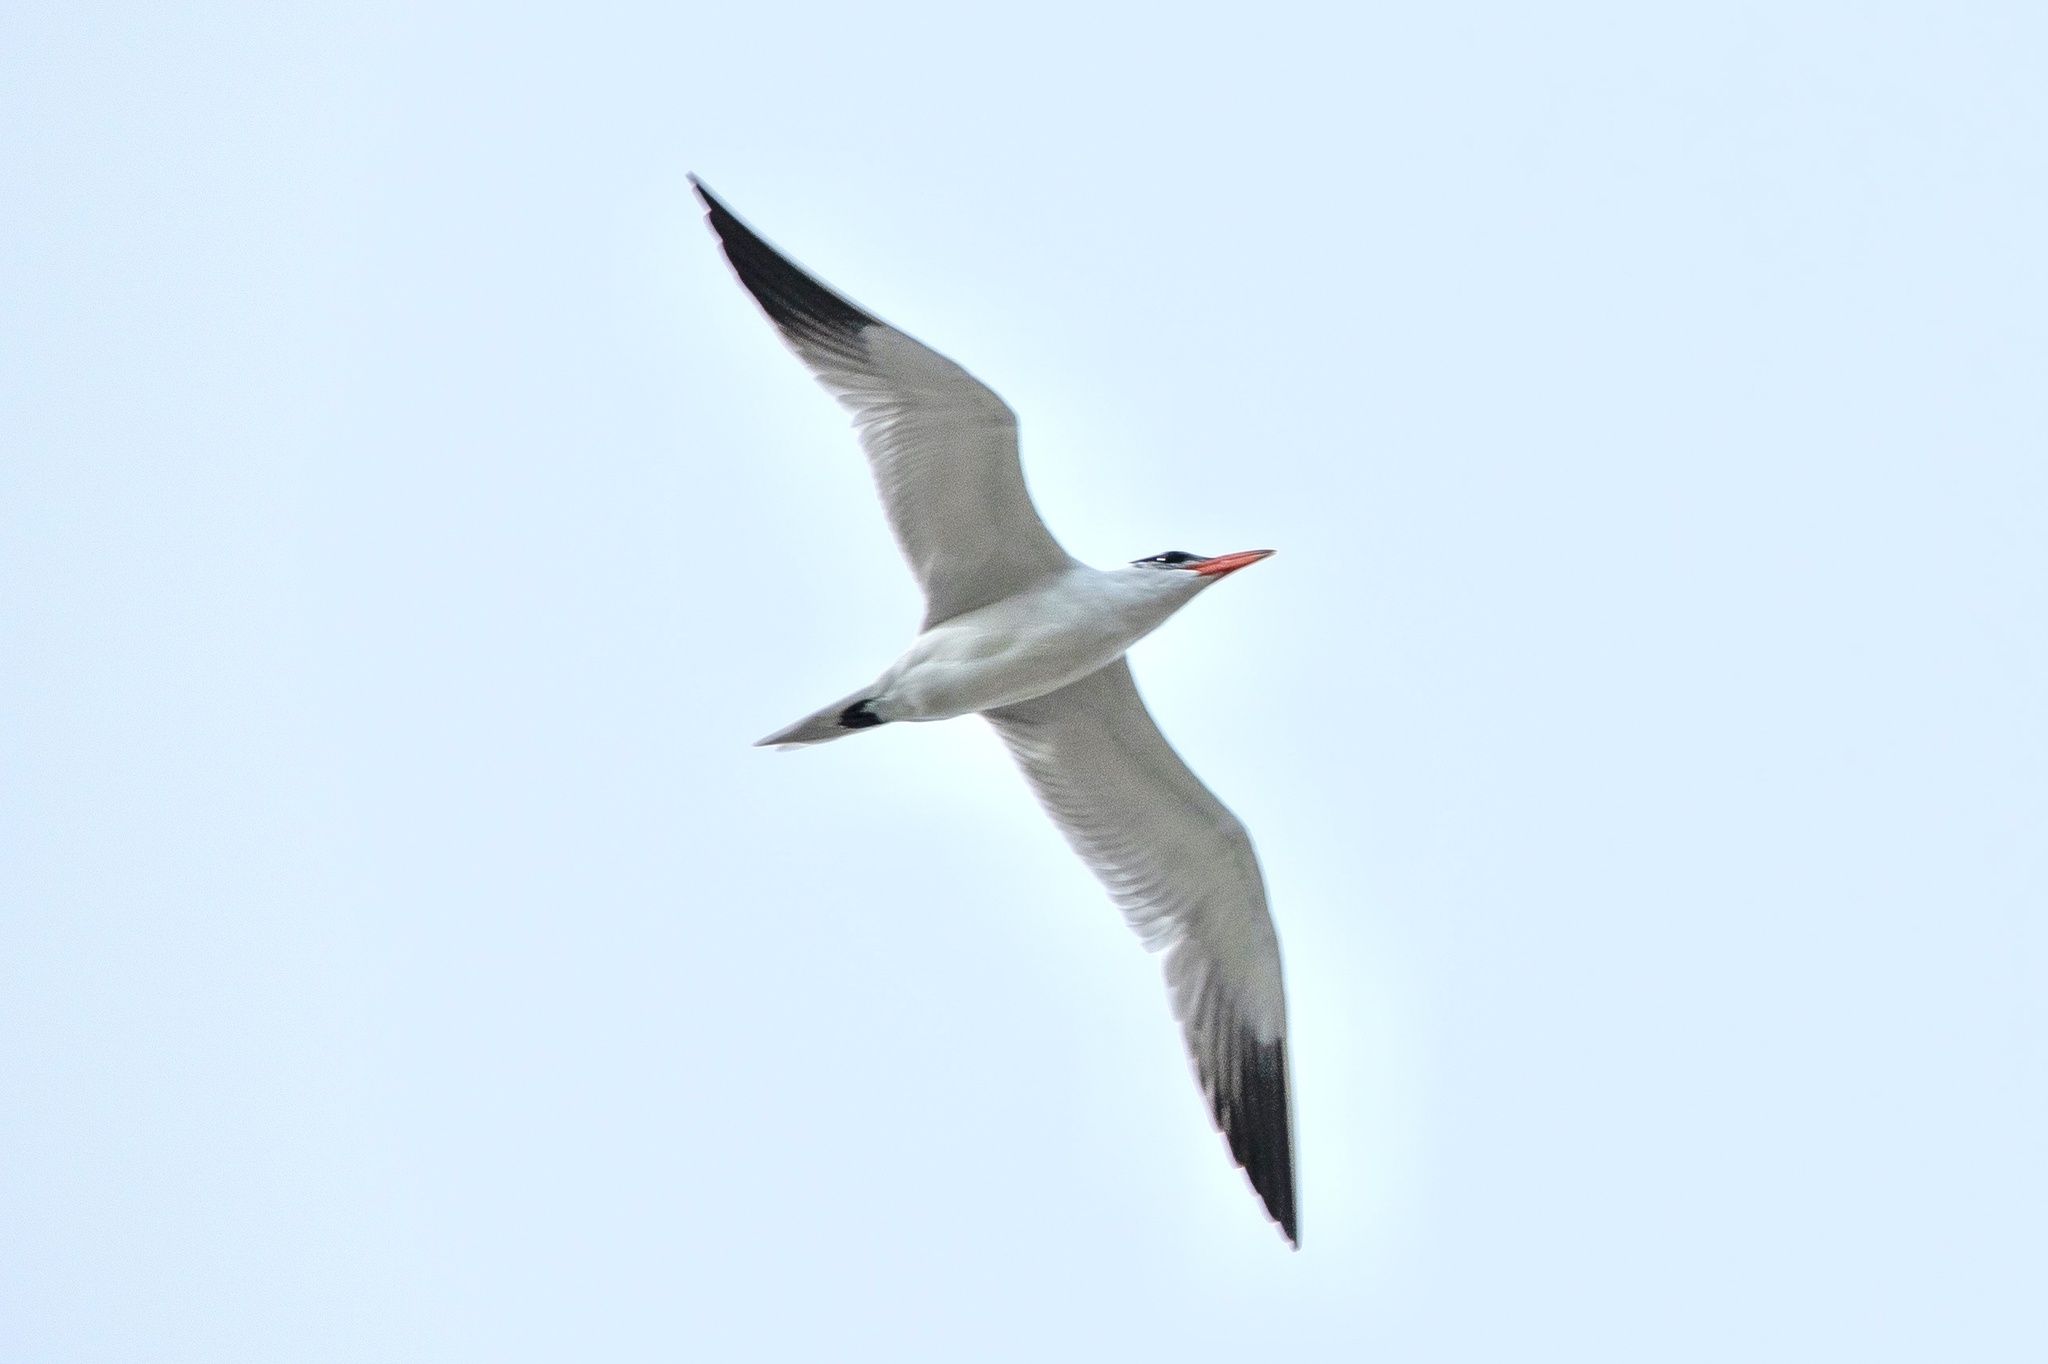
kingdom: Animalia
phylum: Chordata
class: Aves
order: Charadriiformes
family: Laridae
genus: Hydroprogne
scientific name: Hydroprogne caspia
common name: Caspian tern
